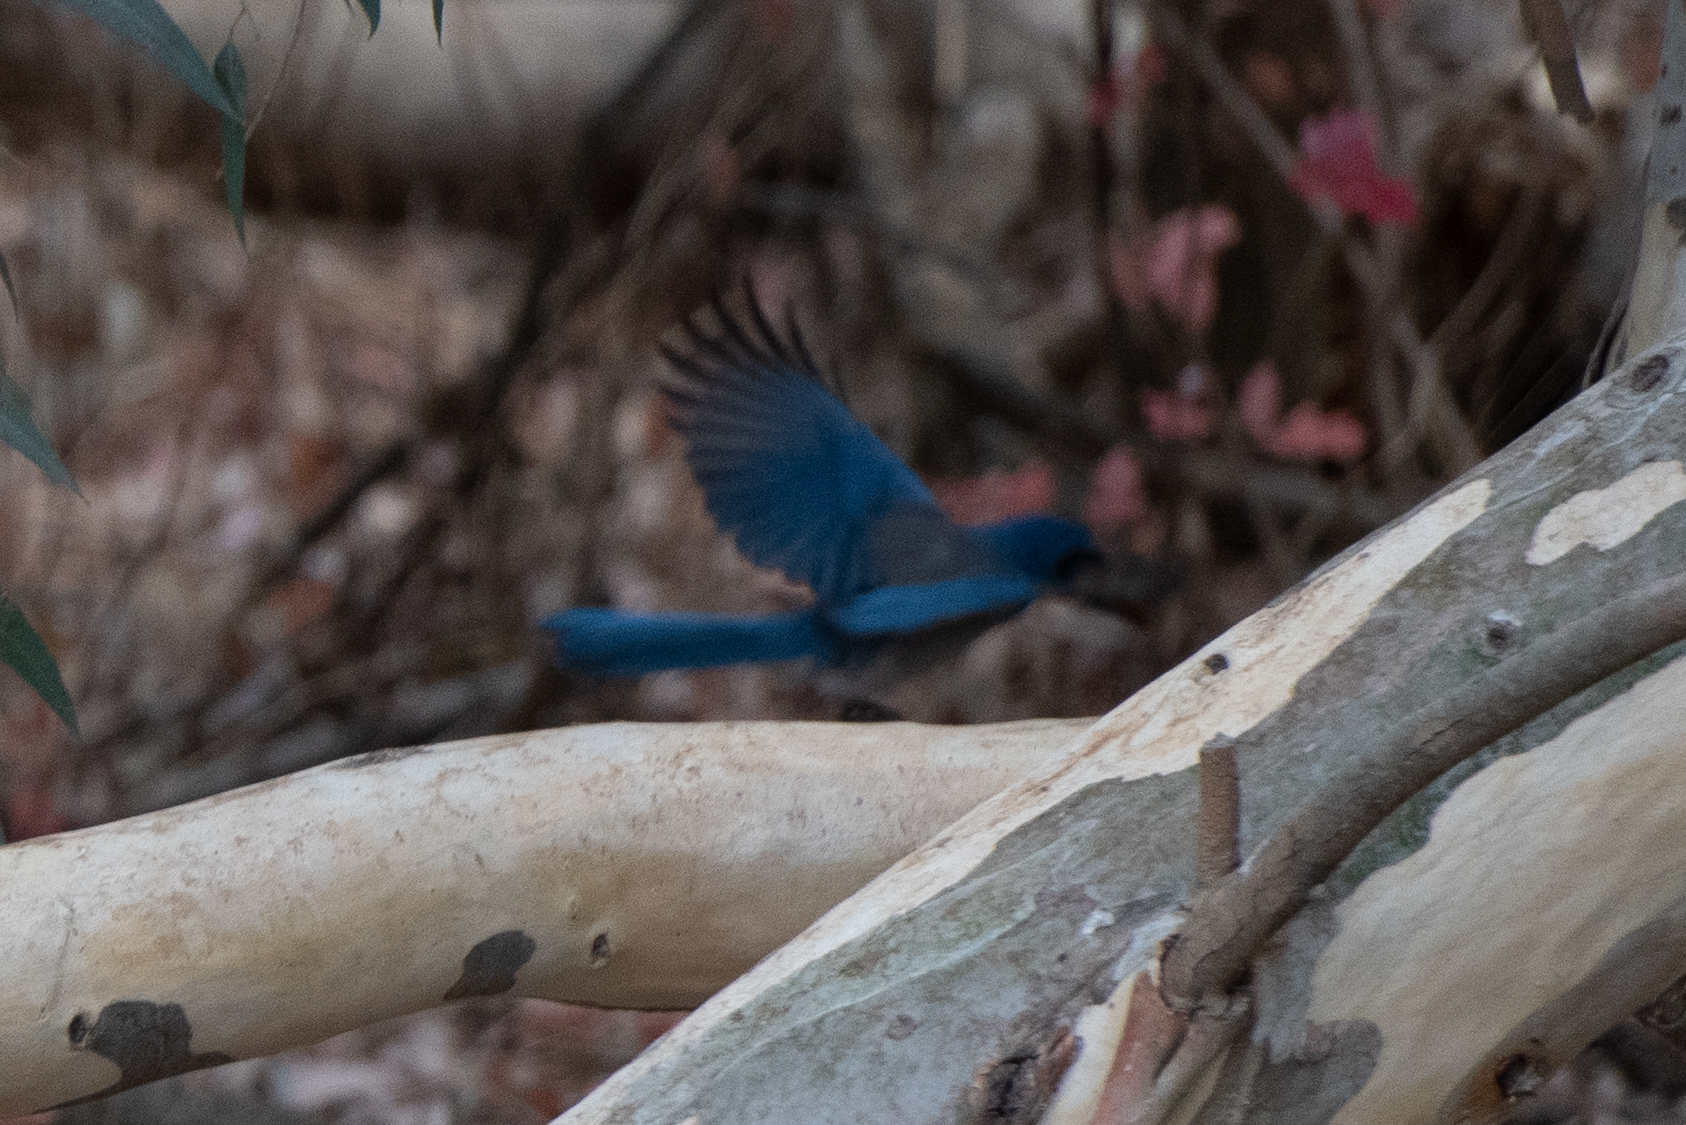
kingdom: Animalia
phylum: Chordata
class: Aves
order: Passeriformes
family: Corvidae
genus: Aphelocoma
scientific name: Aphelocoma californica
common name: California scrub-jay
